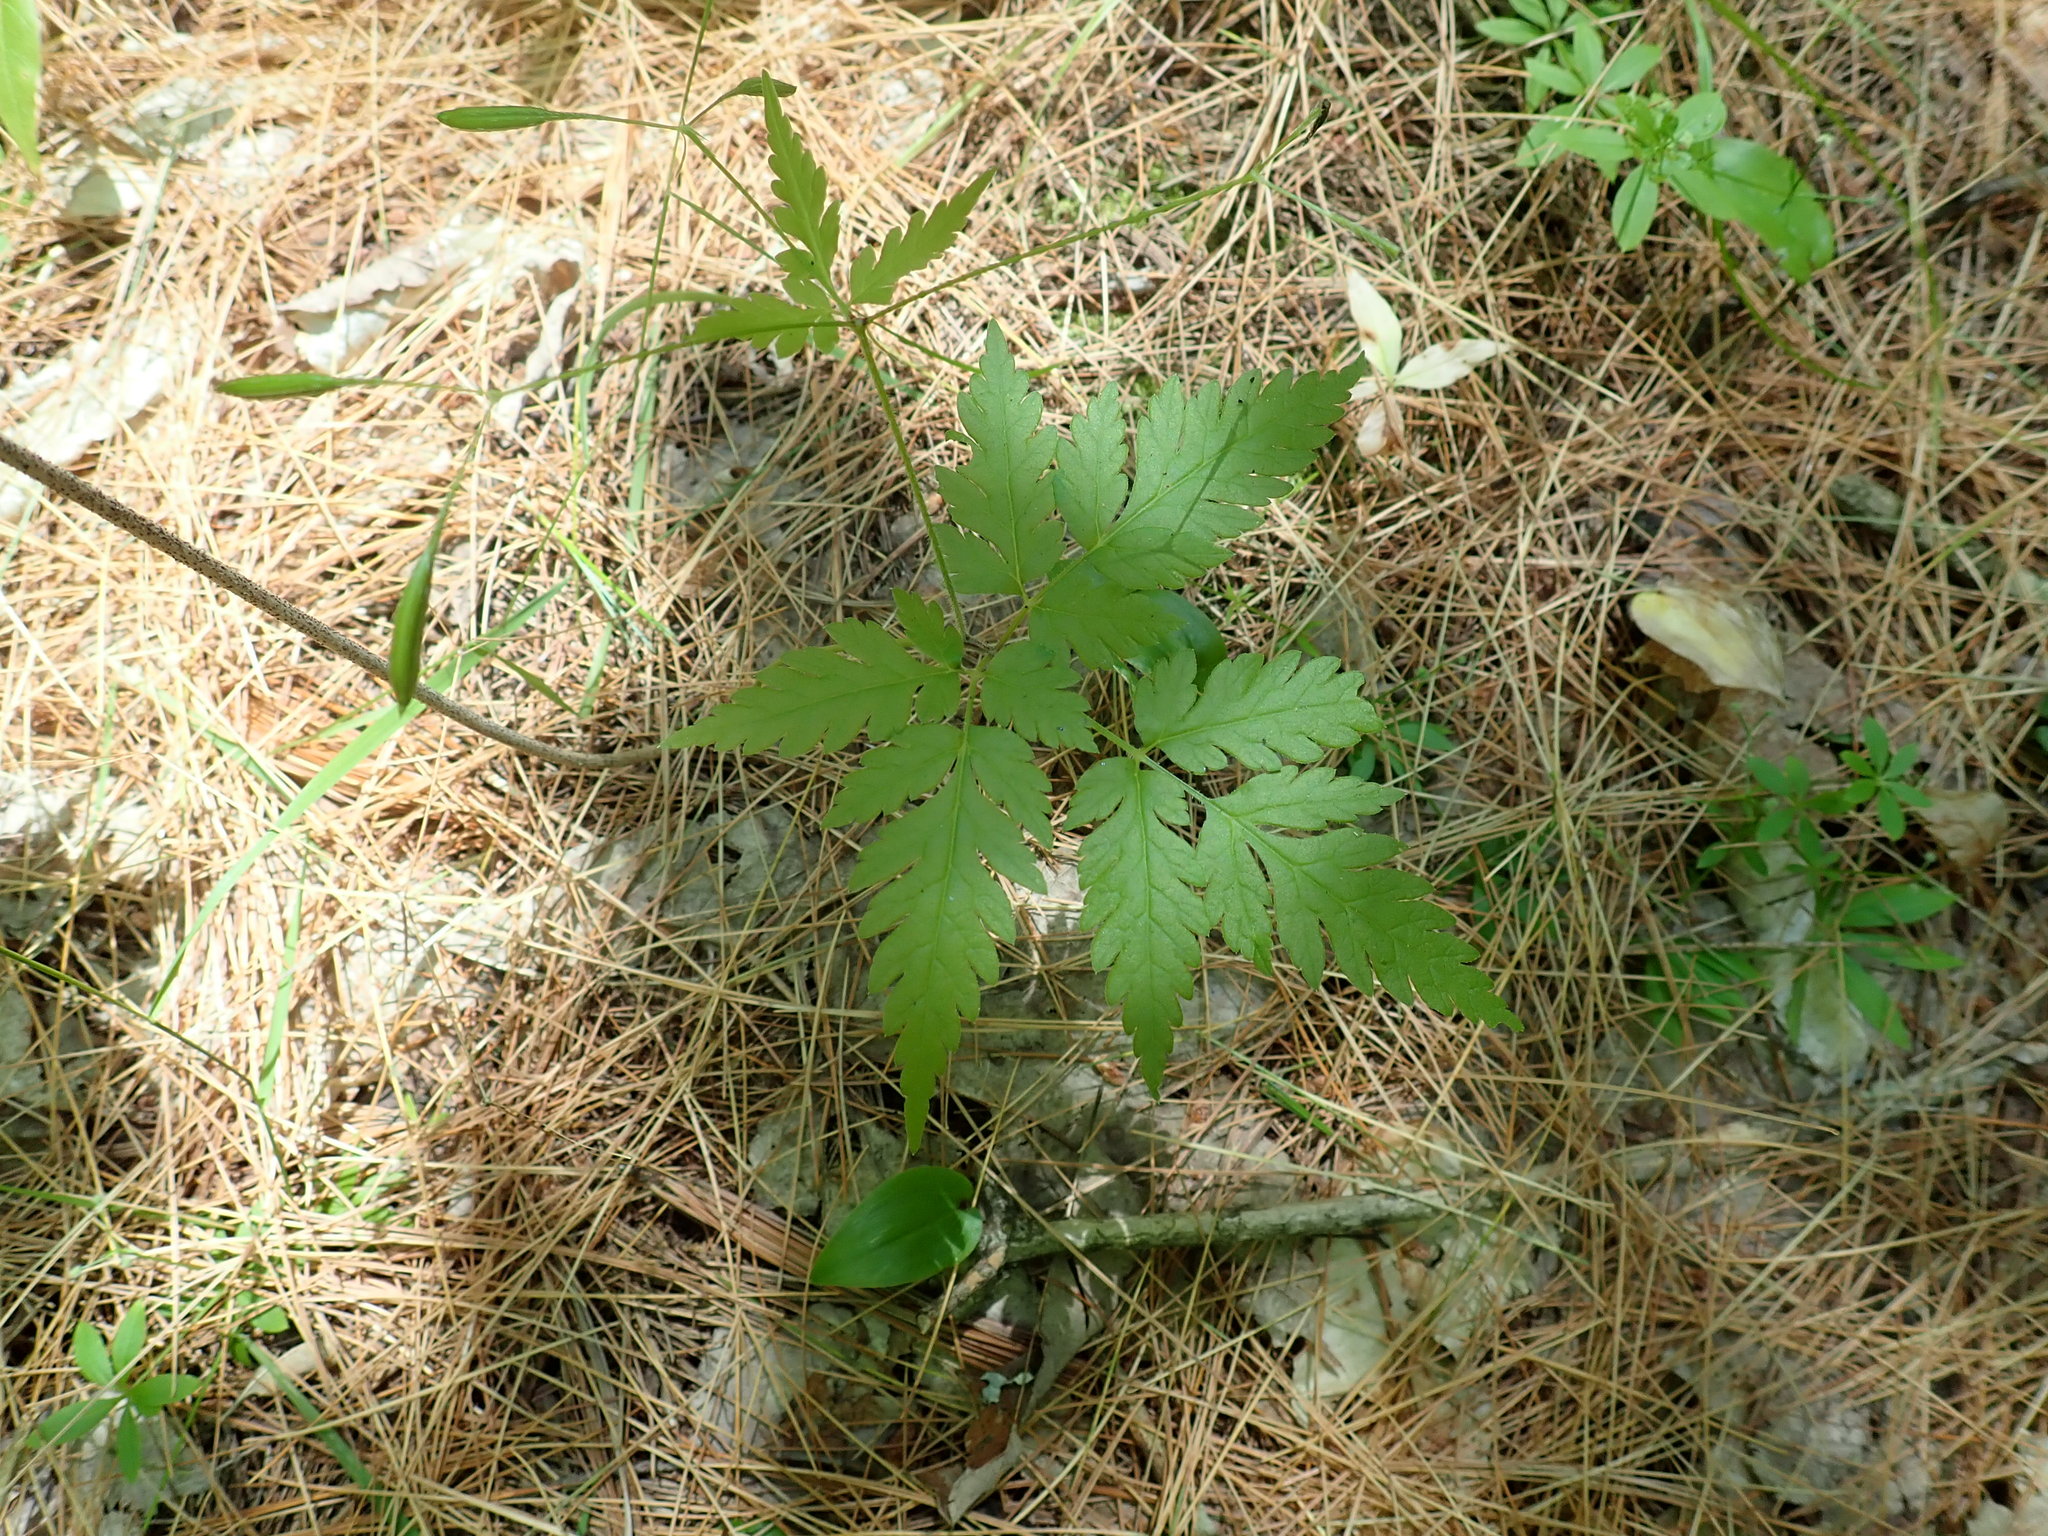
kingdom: Plantae
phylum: Tracheophyta
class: Magnoliopsida
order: Apiales
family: Apiaceae
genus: Osmorhiza
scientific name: Osmorhiza
